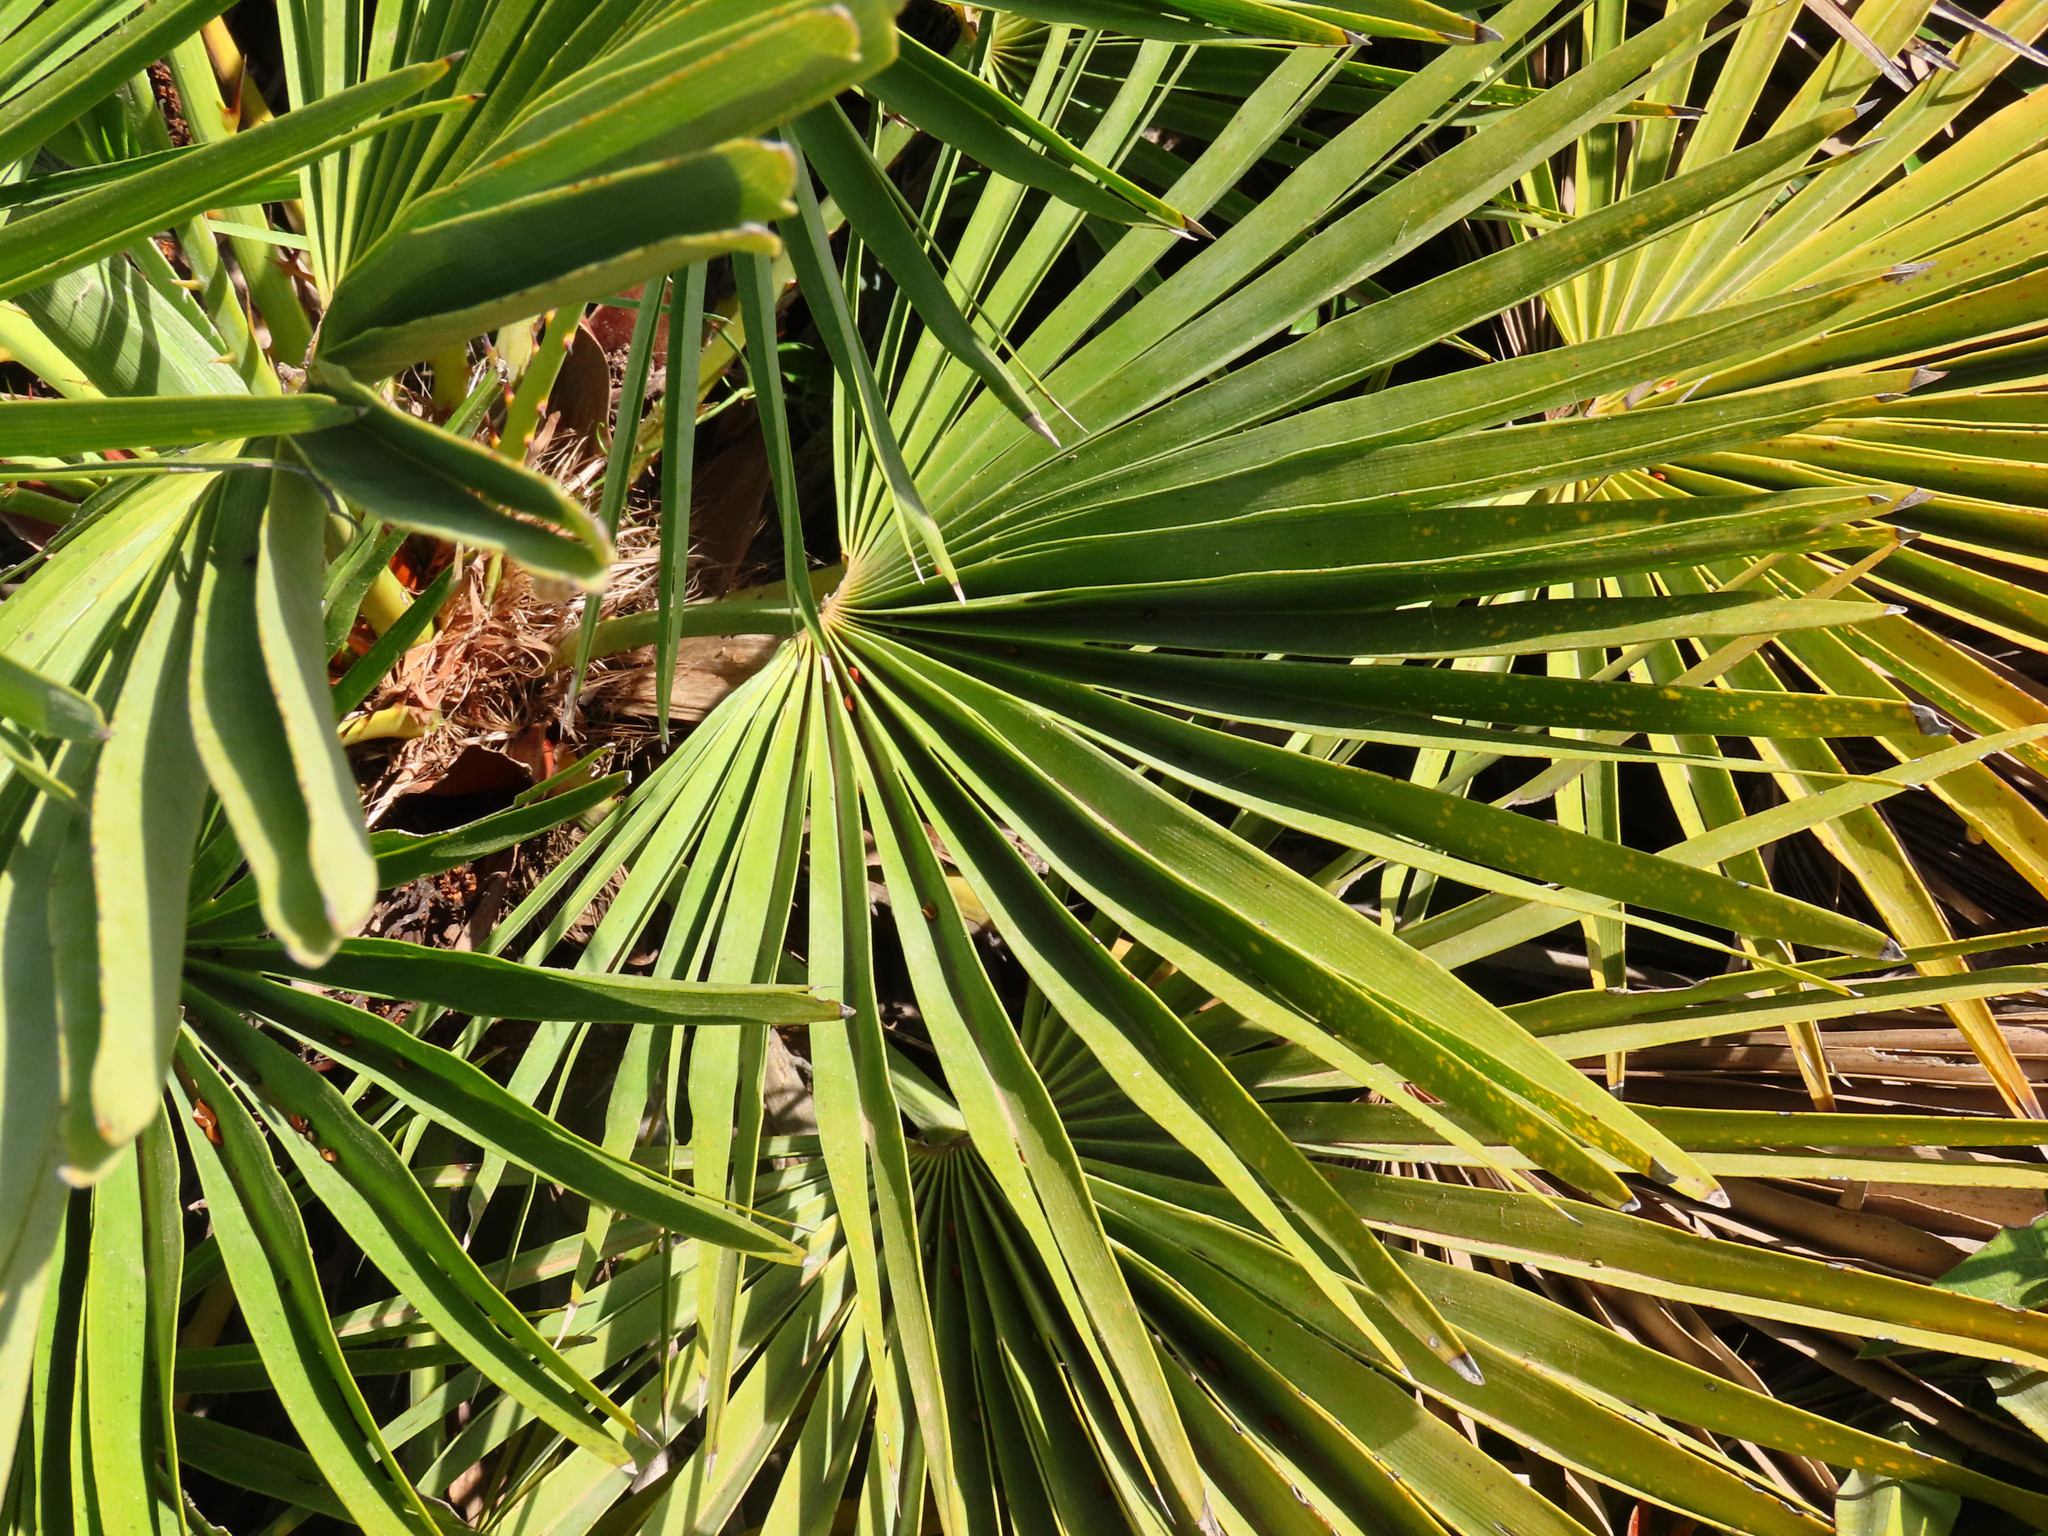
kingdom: Plantae
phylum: Tracheophyta
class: Liliopsida
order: Arecales
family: Arecaceae
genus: Chamaerops
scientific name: Chamaerops humilis
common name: Dwarf fan palm
